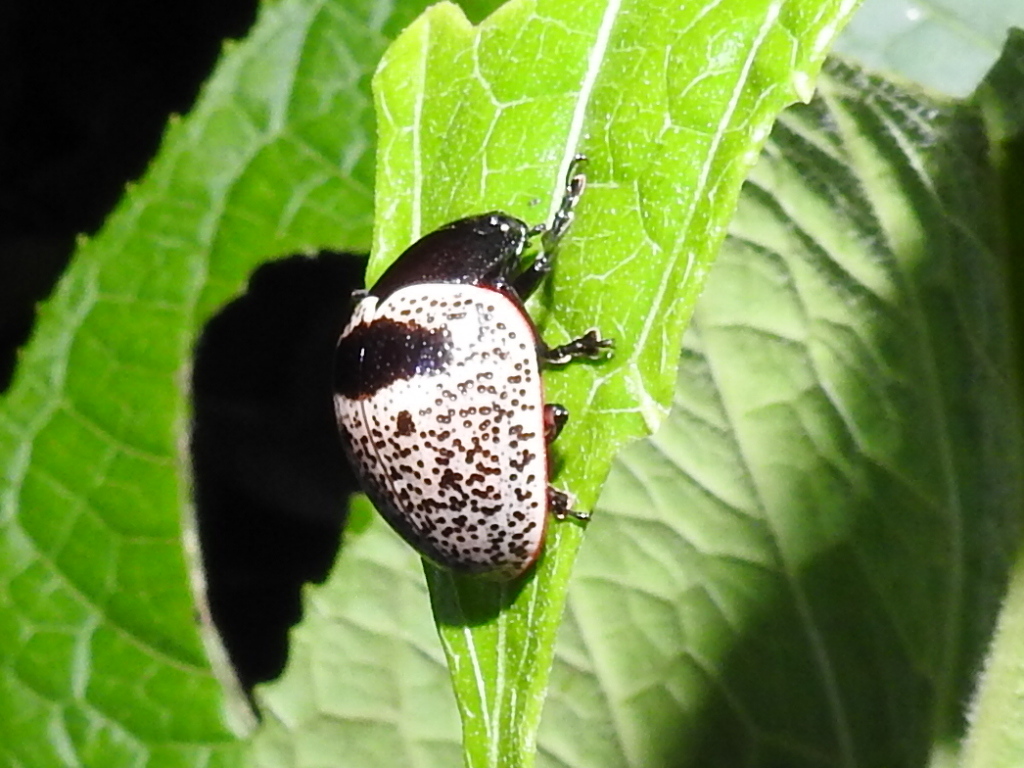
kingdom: Animalia
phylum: Arthropoda
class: Insecta
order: Coleoptera
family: Chrysomelidae
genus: Platyphora
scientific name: Platyphora
